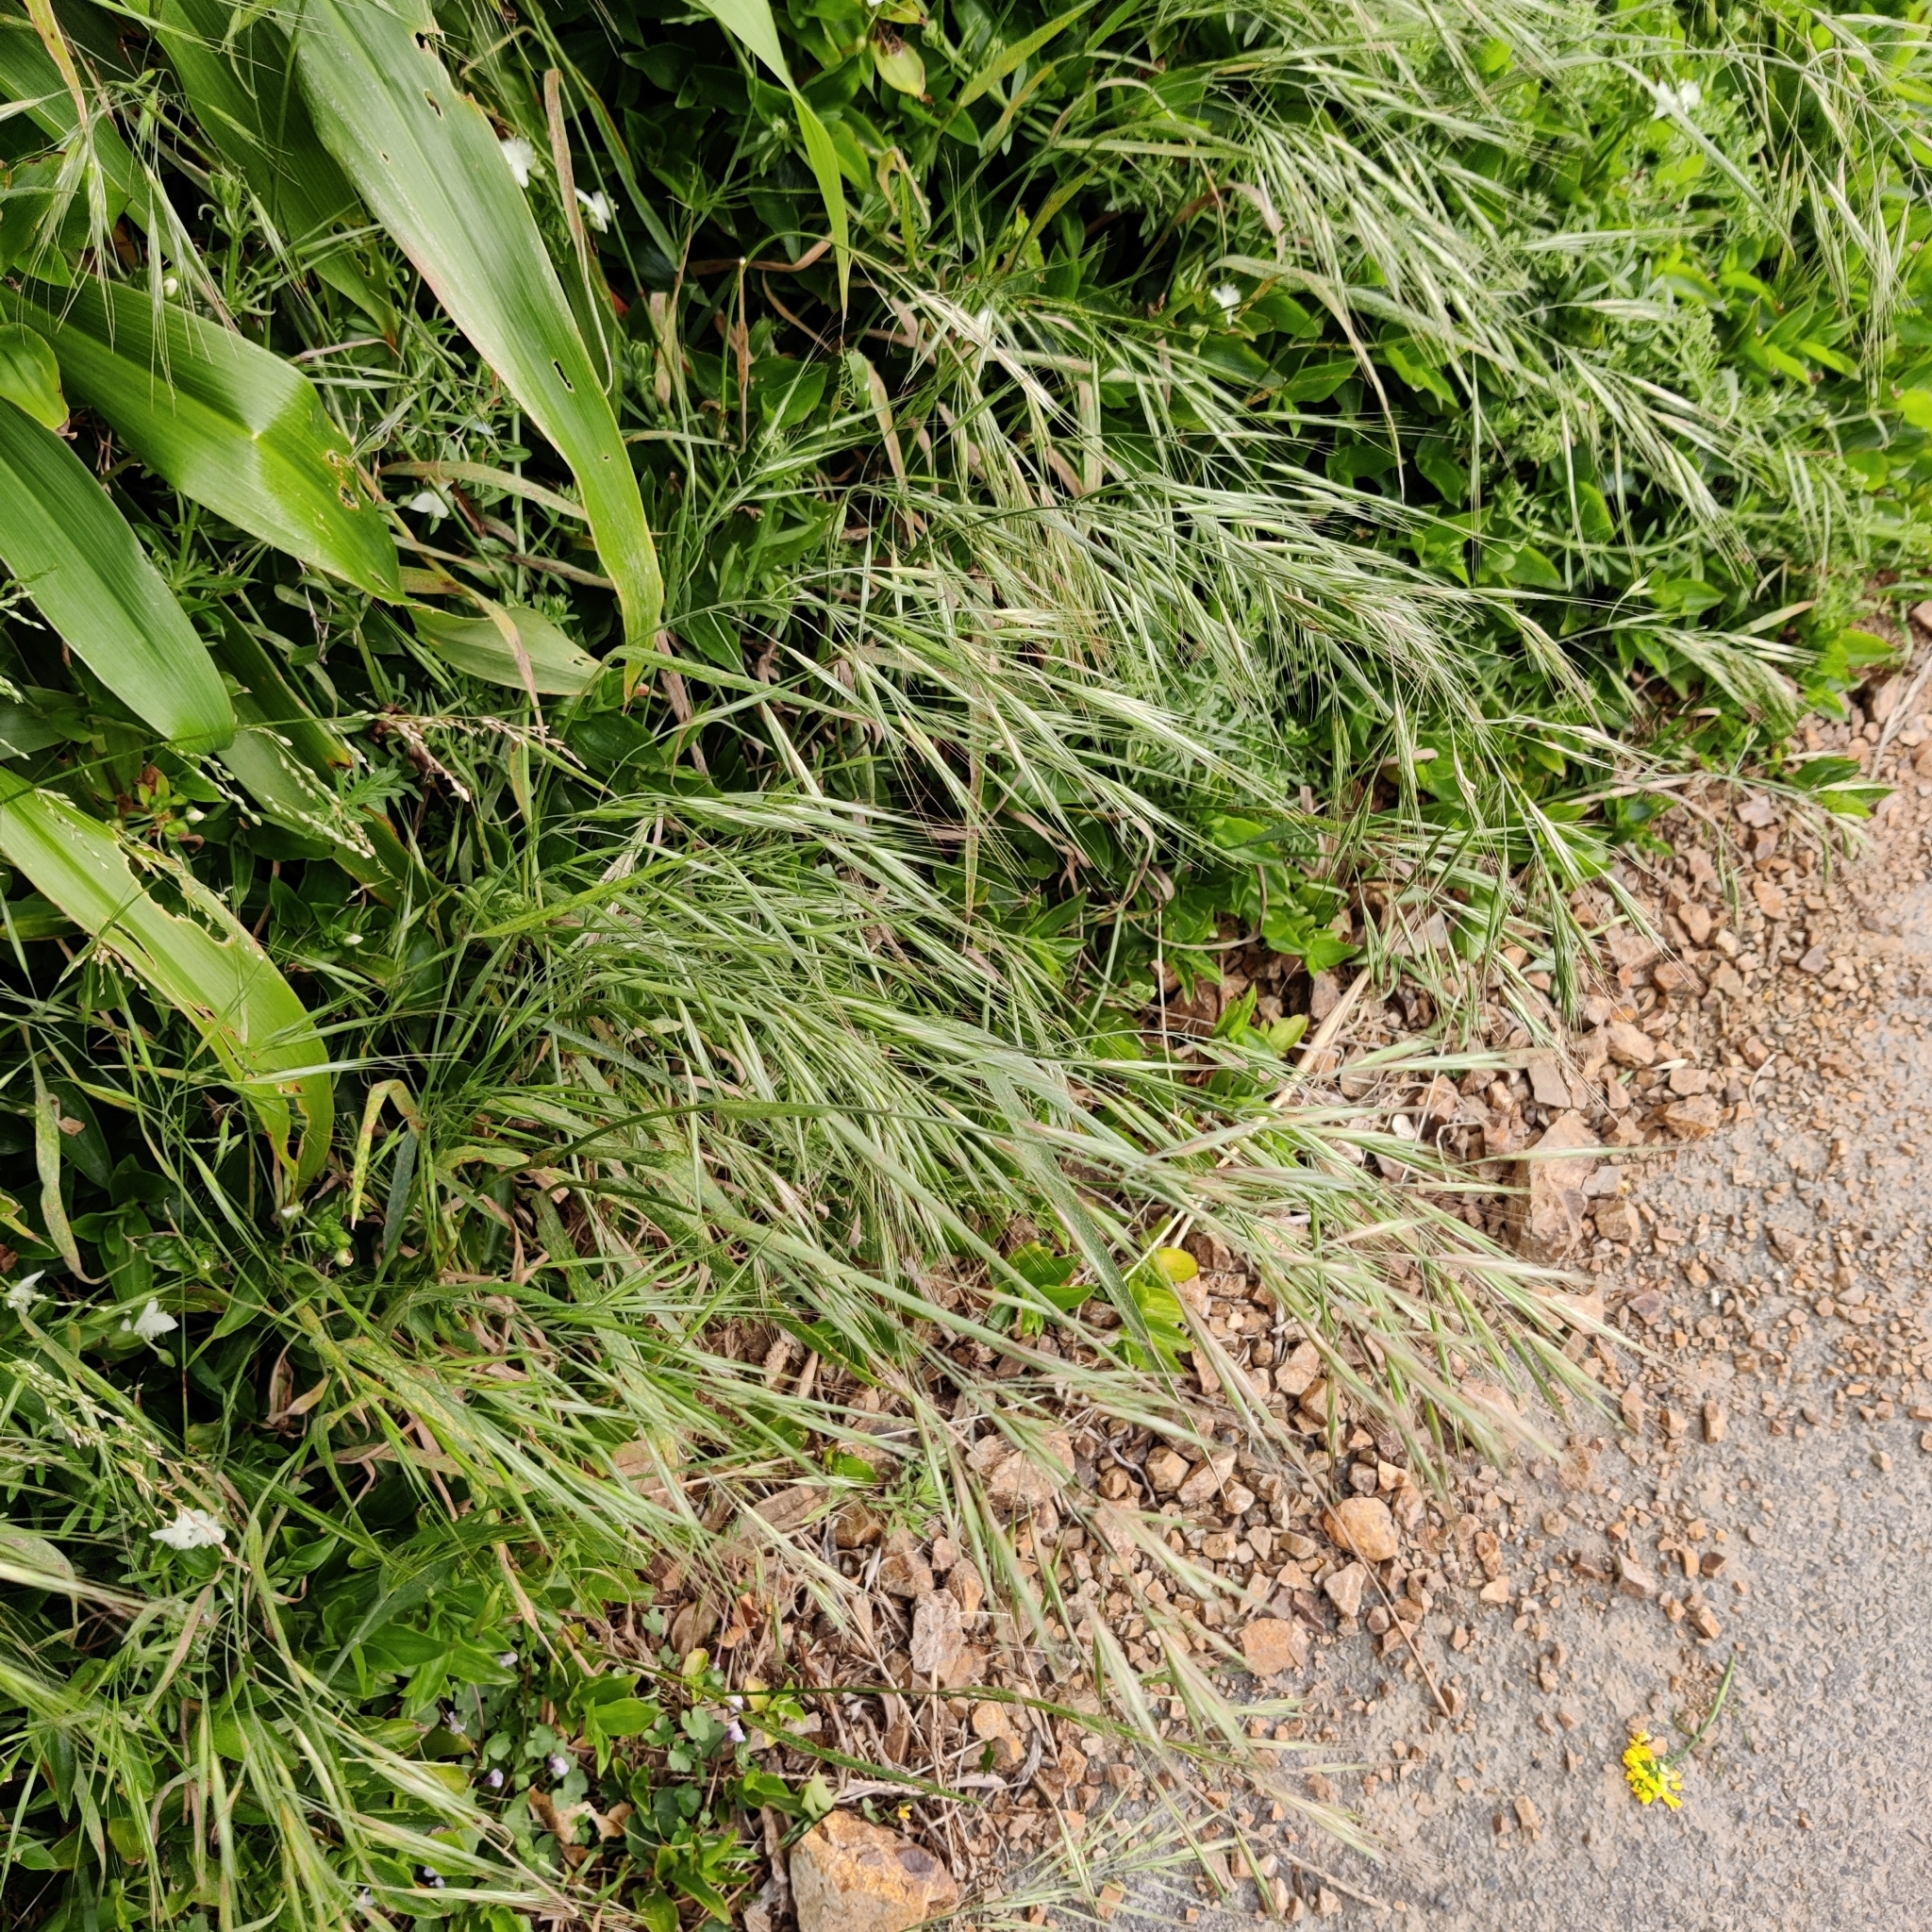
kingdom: Plantae
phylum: Tracheophyta
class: Liliopsida
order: Poales
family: Poaceae
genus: Bromus
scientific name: Bromus diandrus
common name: Ripgut brome
